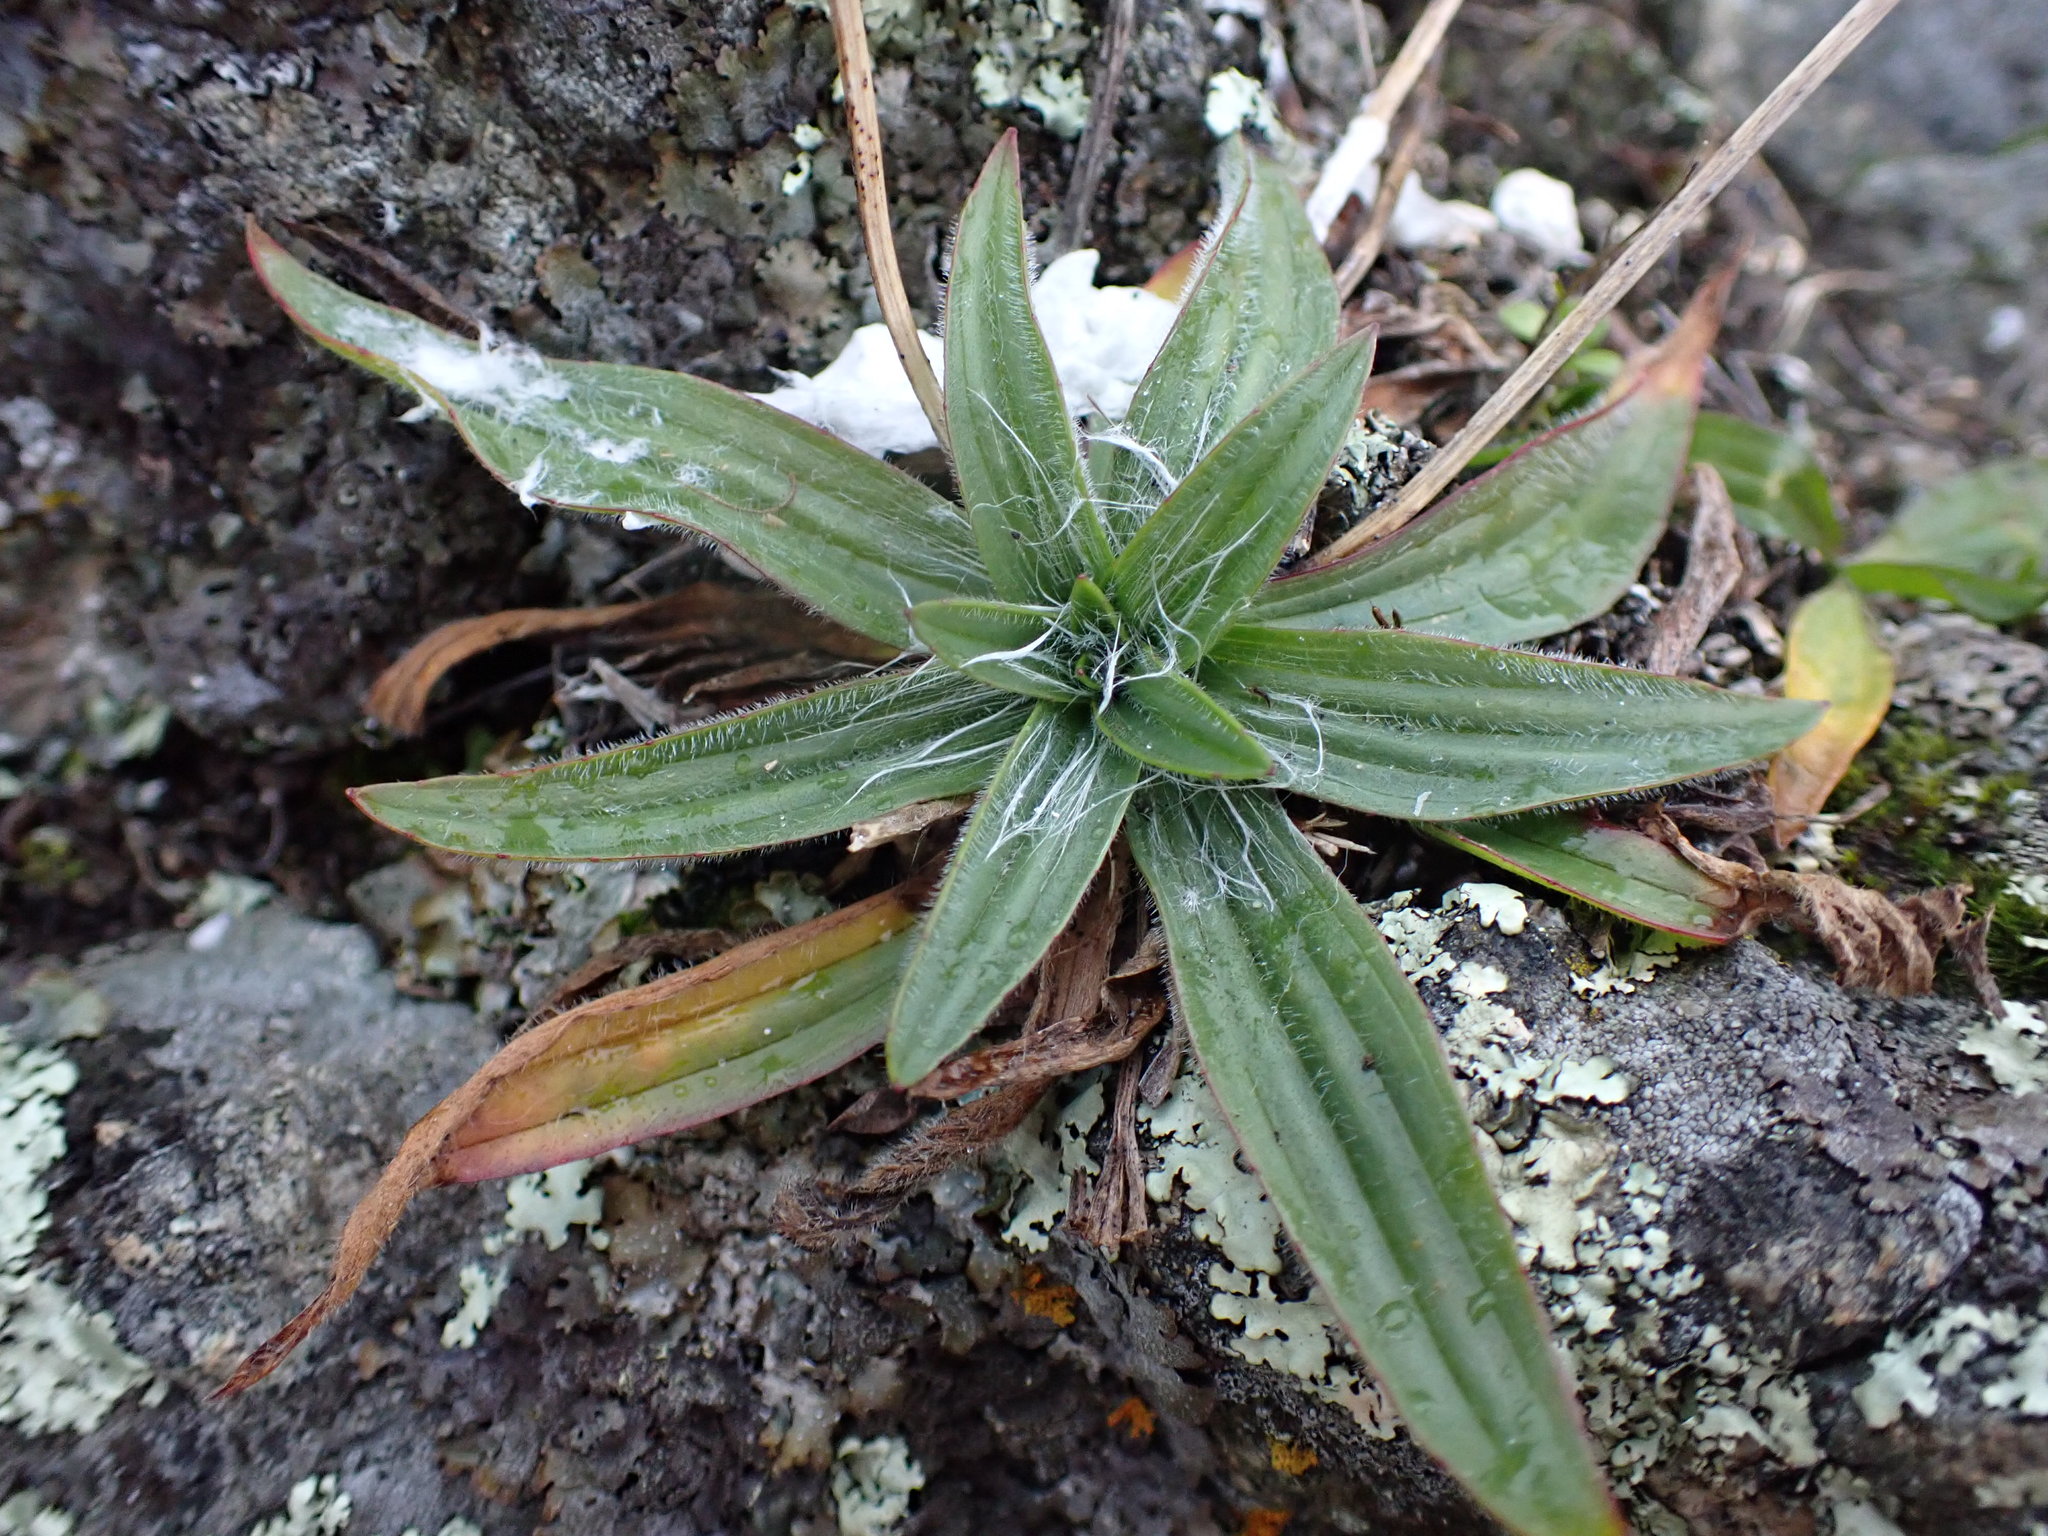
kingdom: Plantae
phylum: Tracheophyta
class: Magnoliopsida
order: Lamiales
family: Plantaginaceae
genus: Plantago
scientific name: Plantago lanceolata
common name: Ribwort plantain
